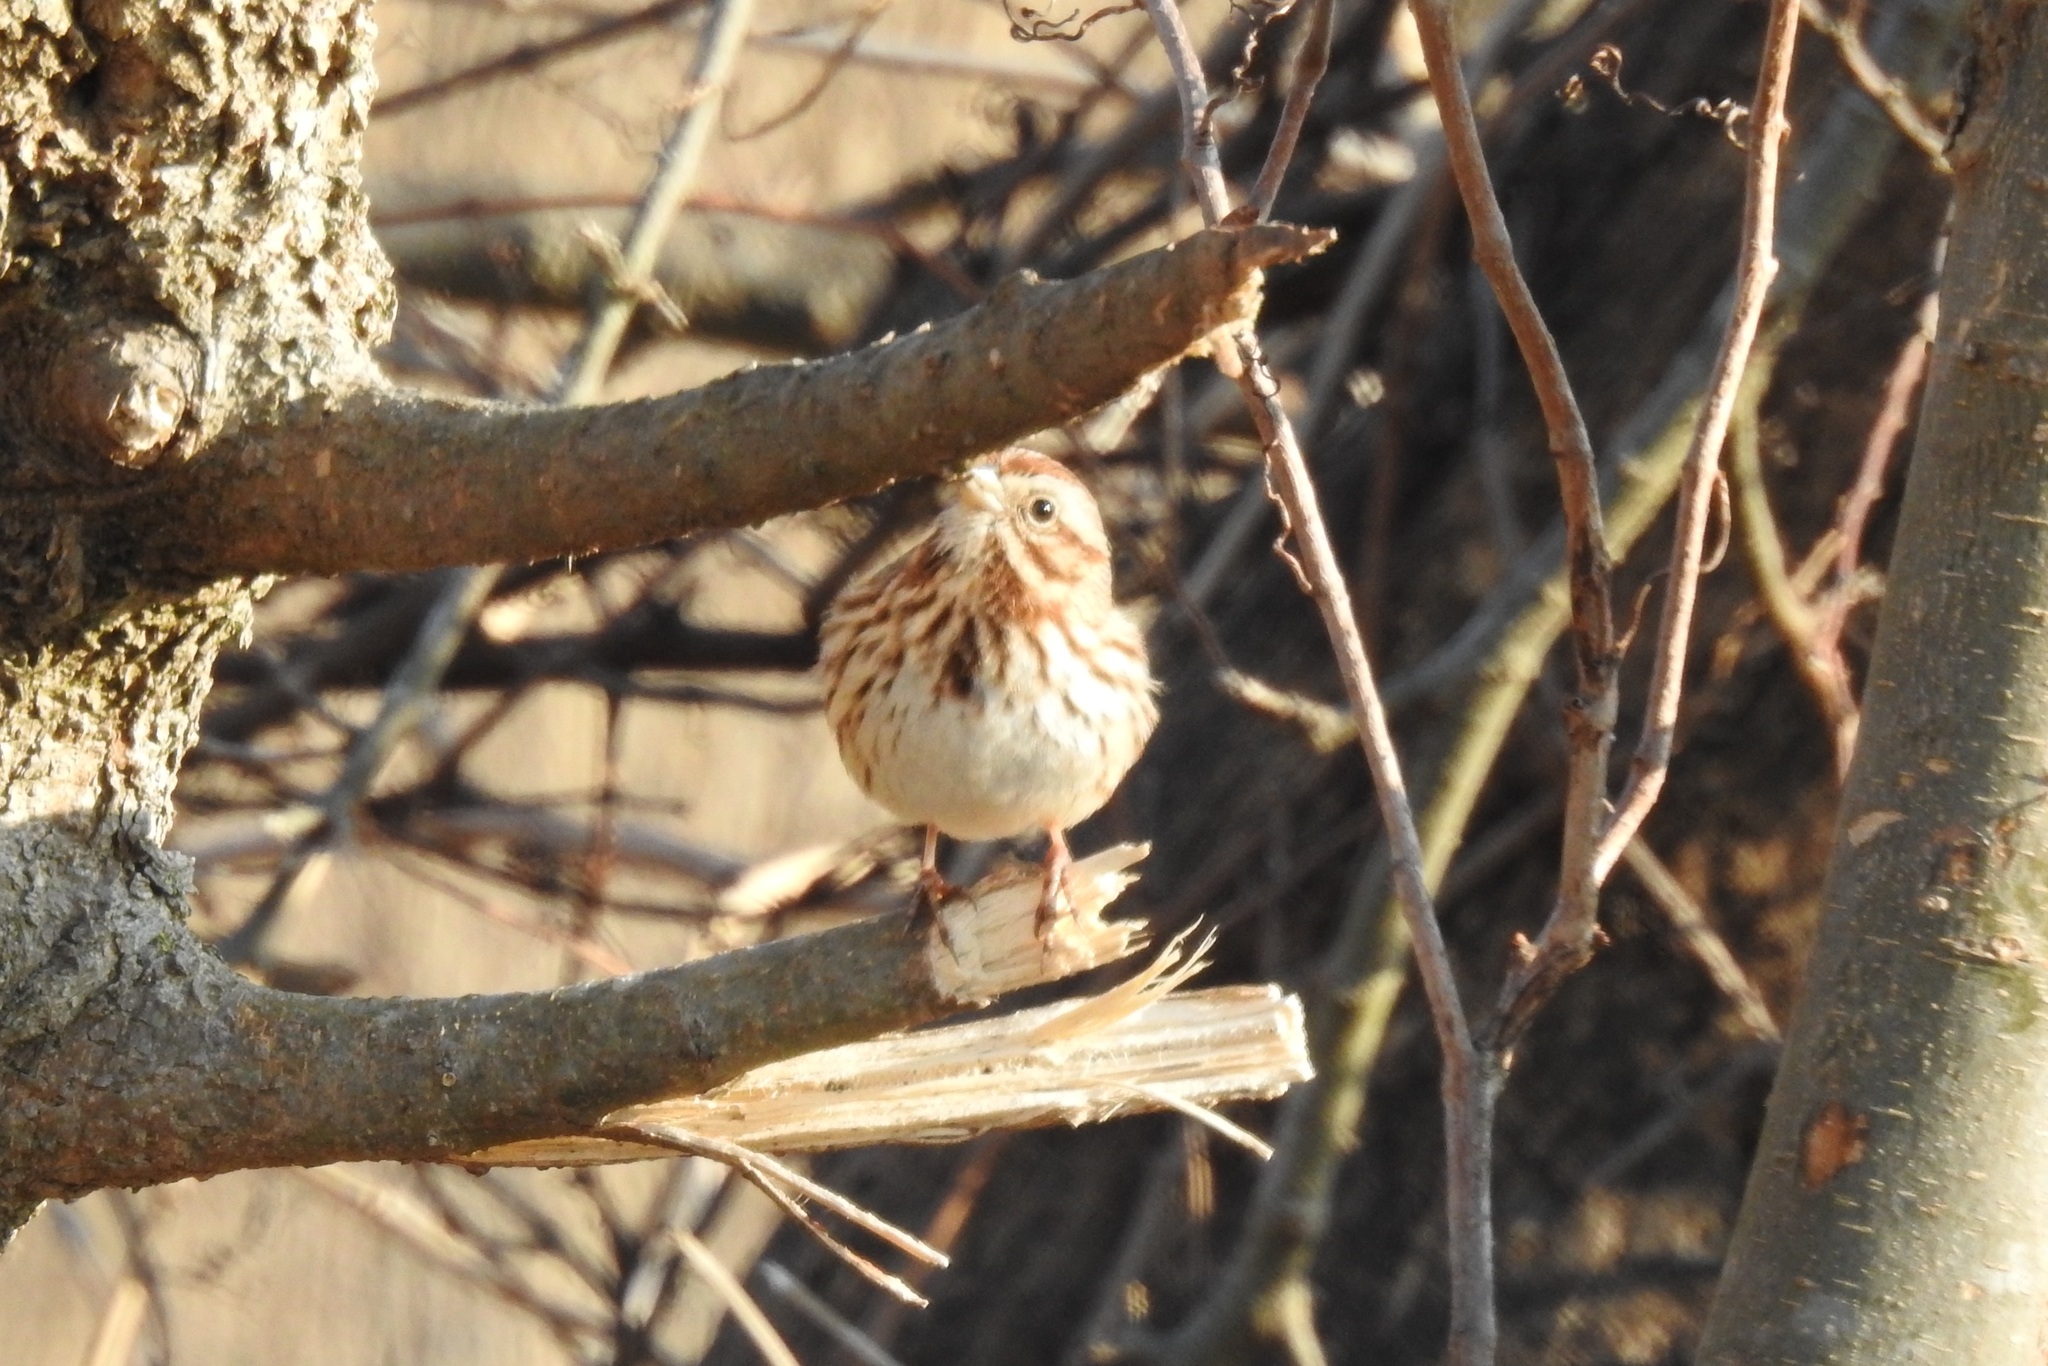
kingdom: Animalia
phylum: Chordata
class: Aves
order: Passeriformes
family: Passerellidae
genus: Melospiza
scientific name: Melospiza melodia
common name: Song sparrow
